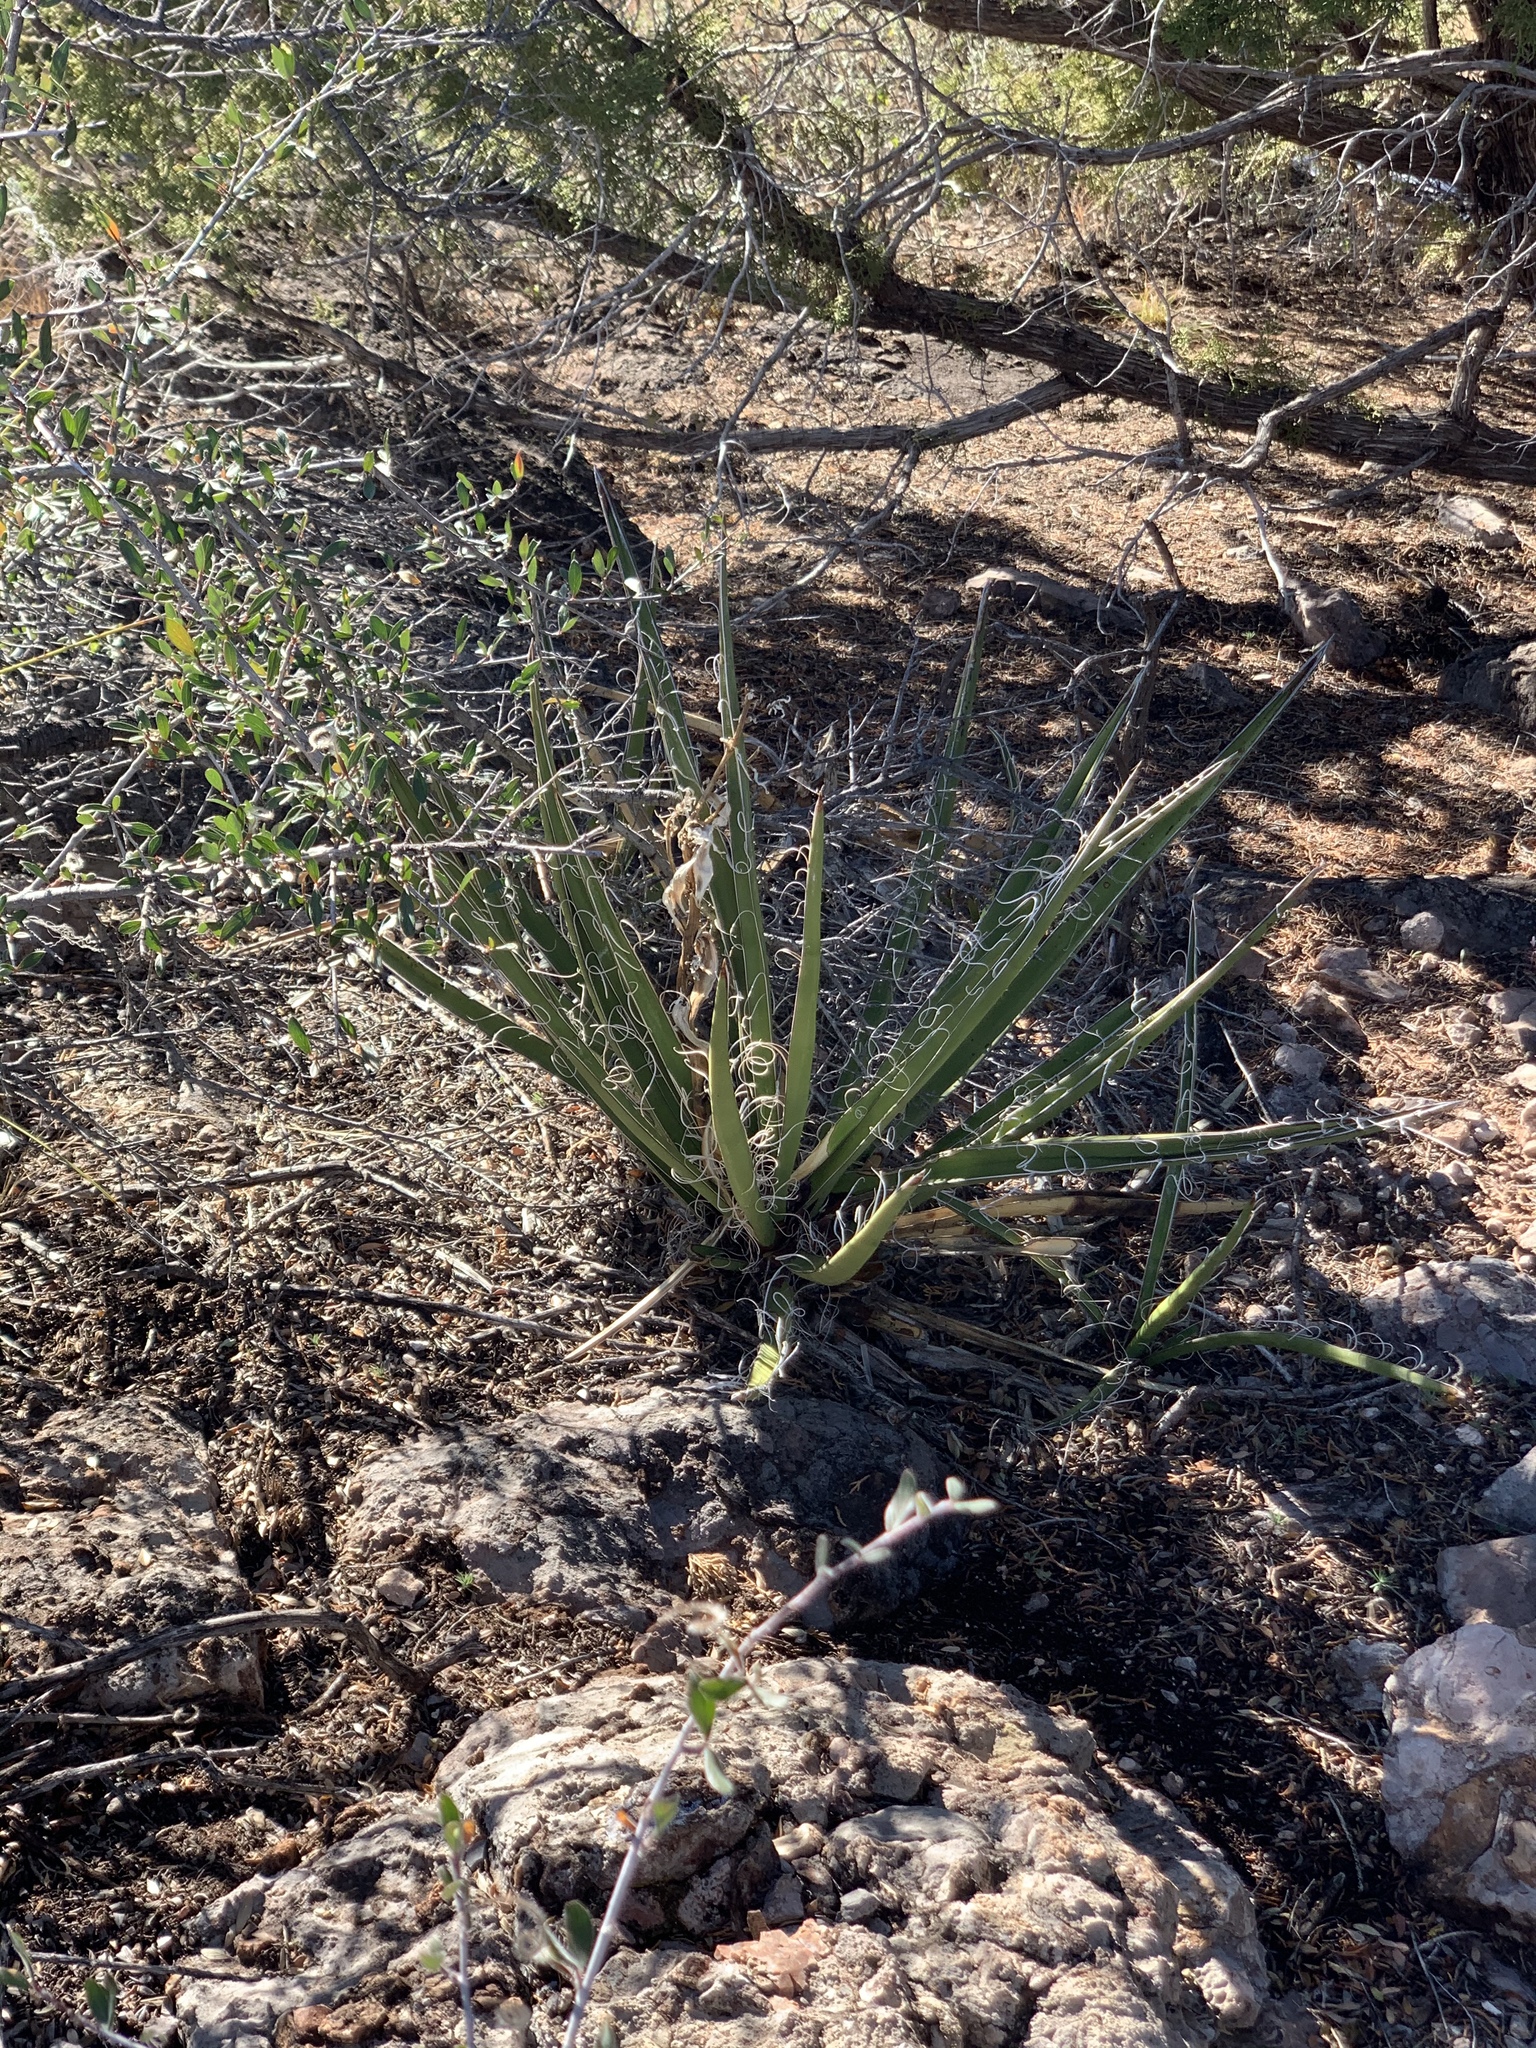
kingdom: Plantae
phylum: Tracheophyta
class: Liliopsida
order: Asparagales
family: Asparagaceae
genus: Yucca
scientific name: Yucca baccata
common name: Banana yucca
